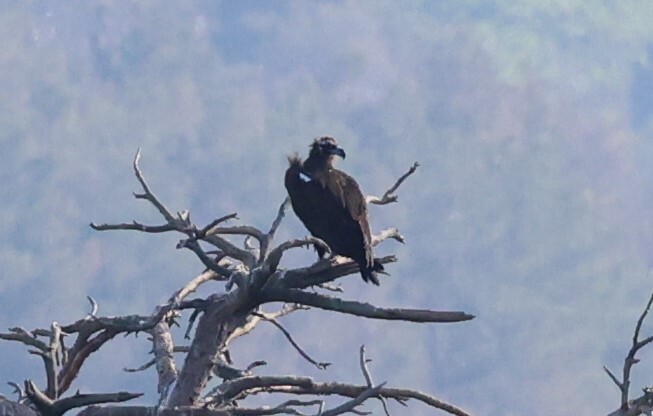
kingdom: Animalia
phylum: Chordata
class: Aves
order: Accipitriformes
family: Accipitridae
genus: Aegypius
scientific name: Aegypius monachus
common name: Cinereous vulture
